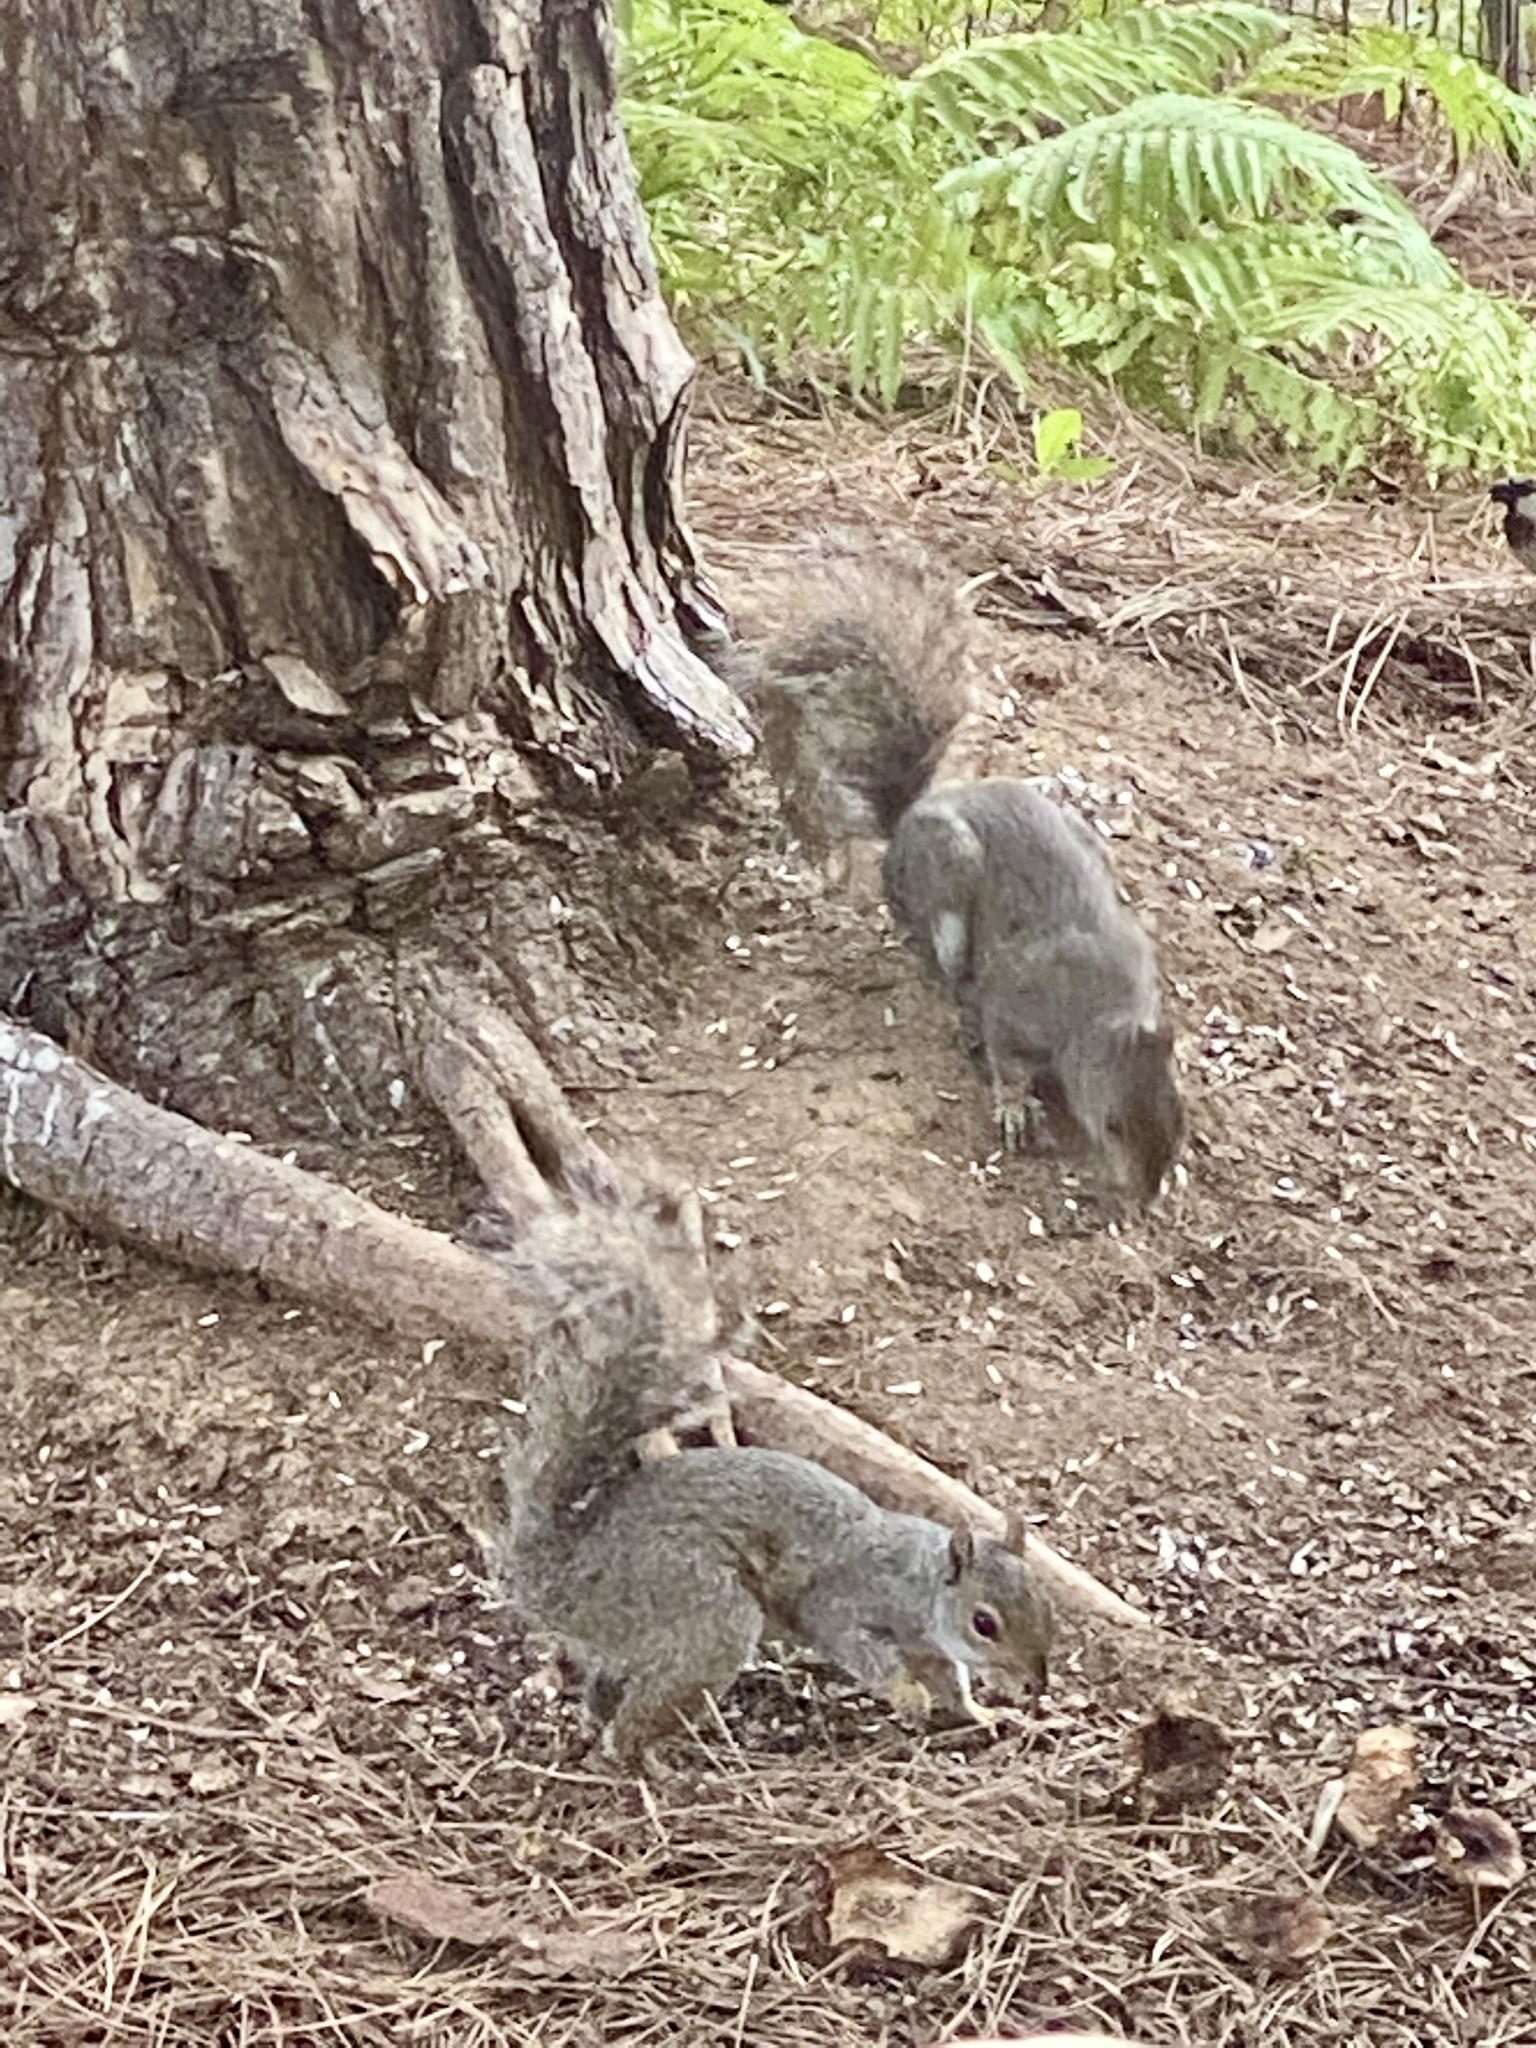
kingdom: Animalia
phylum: Chordata
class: Mammalia
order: Rodentia
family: Sciuridae
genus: Sciurus
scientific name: Sciurus carolinensis
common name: Eastern gray squirrel
